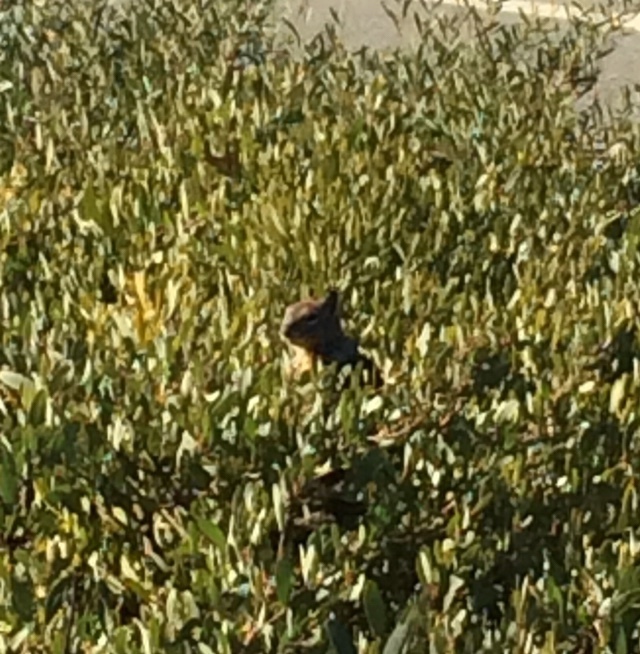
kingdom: Animalia
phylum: Chordata
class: Mammalia
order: Rodentia
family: Sciuridae
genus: Otospermophilus
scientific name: Otospermophilus beecheyi
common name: California ground squirrel
